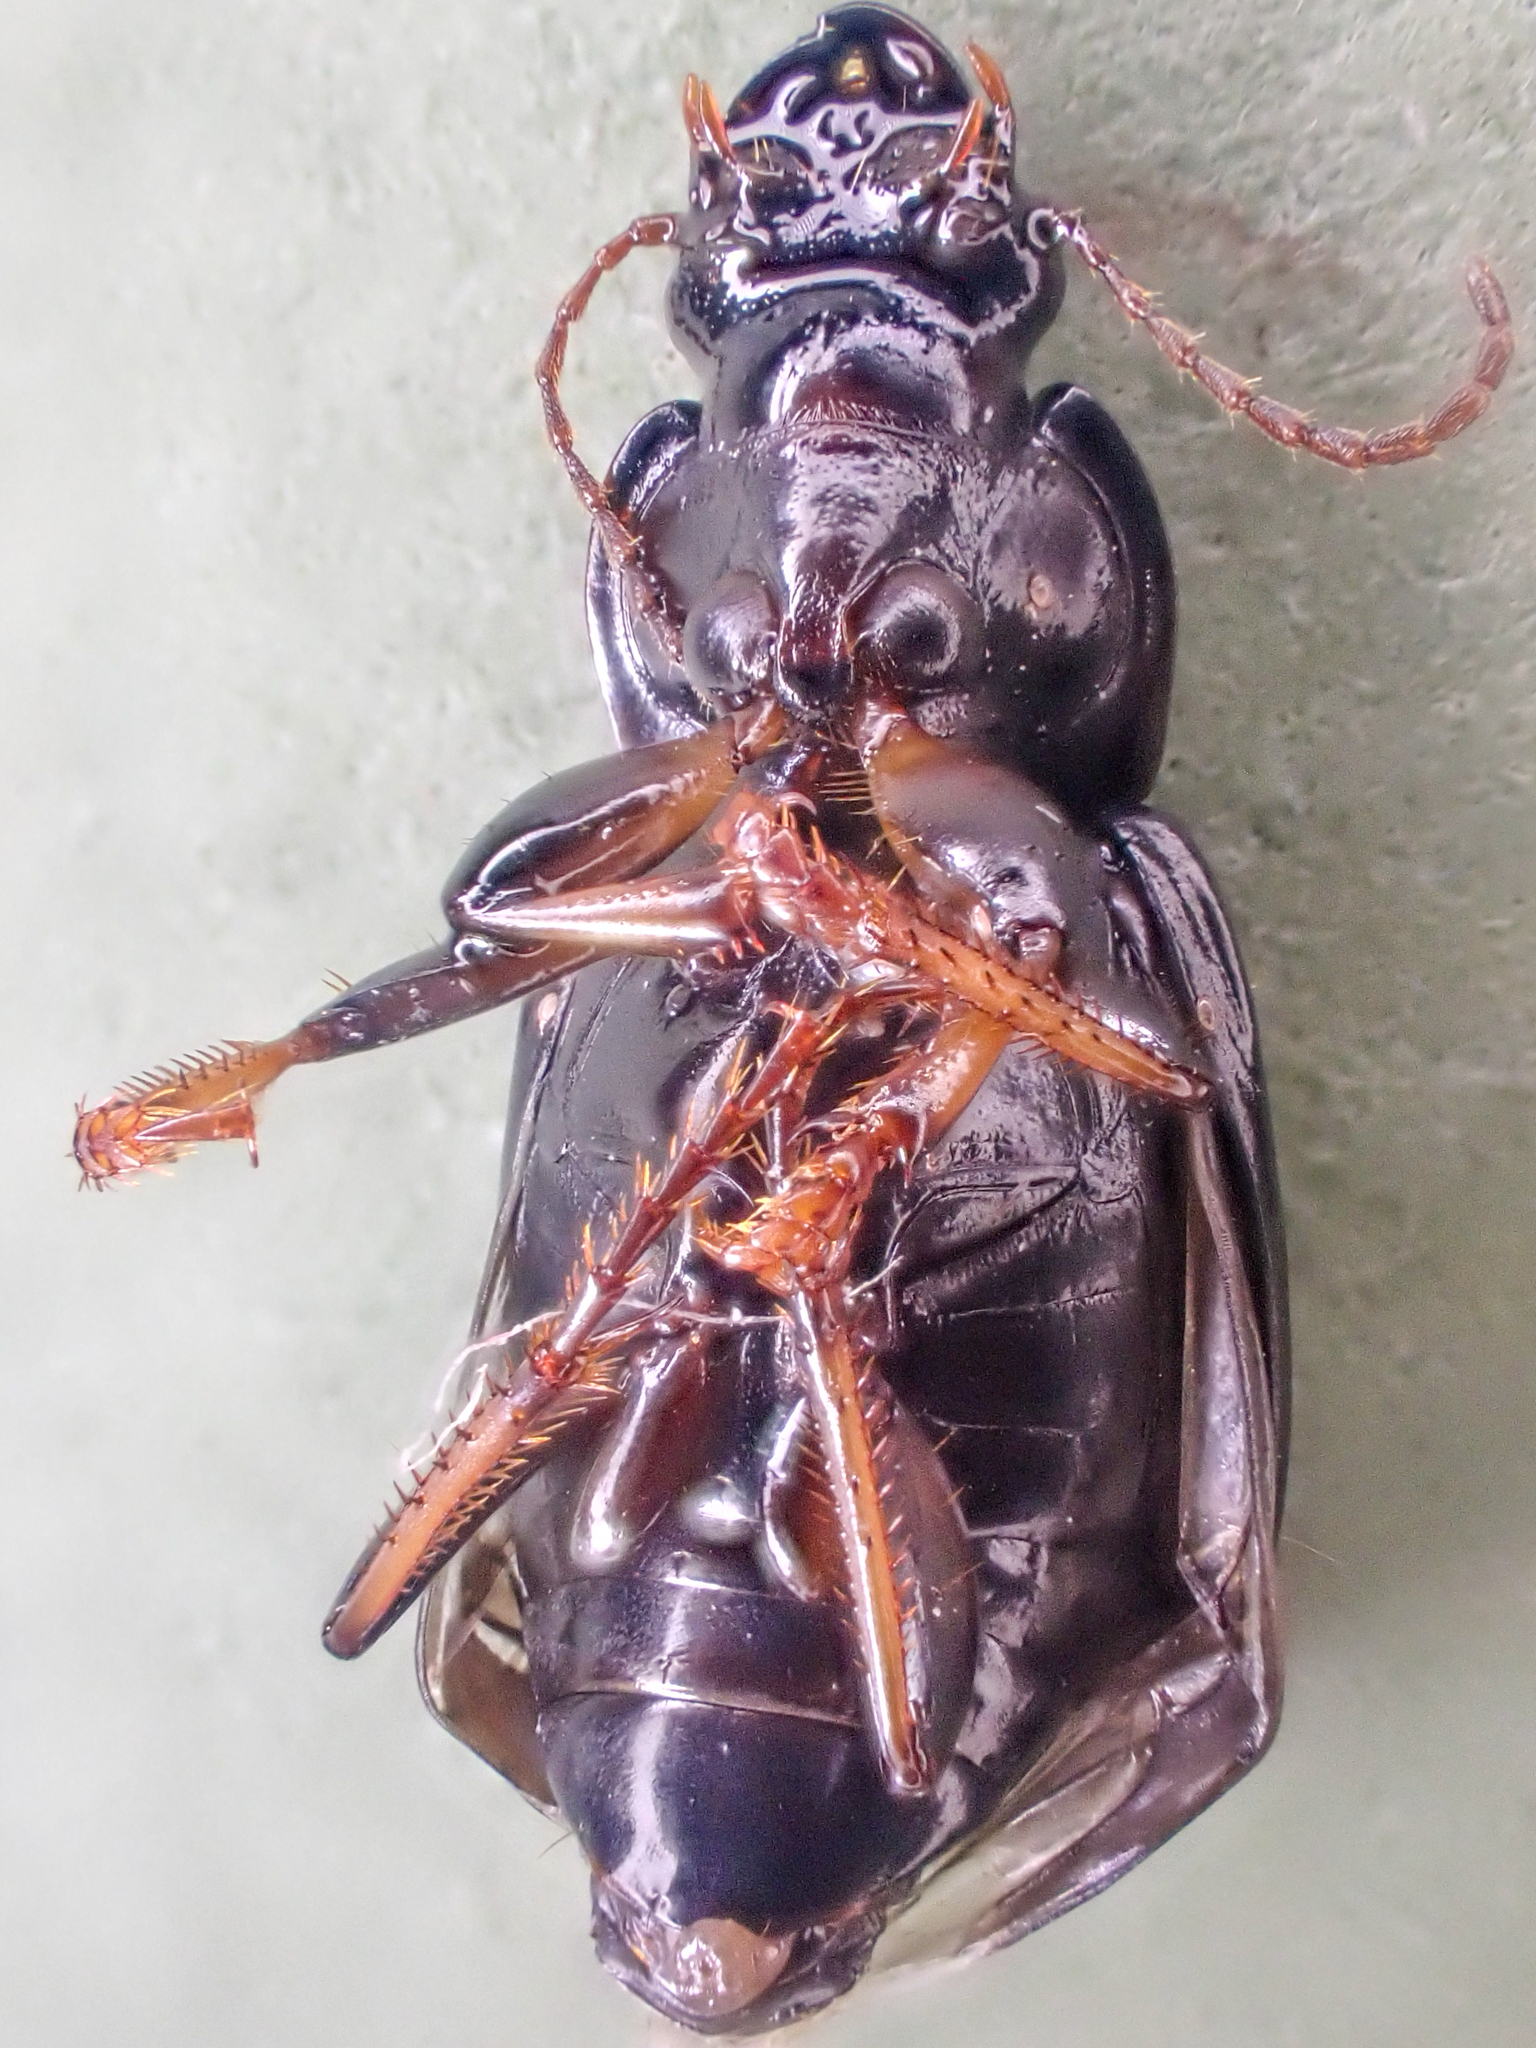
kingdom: Animalia
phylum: Arthropoda
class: Insecta
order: Coleoptera
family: Carabidae
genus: Harpalus
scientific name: Harpalus innocuus
